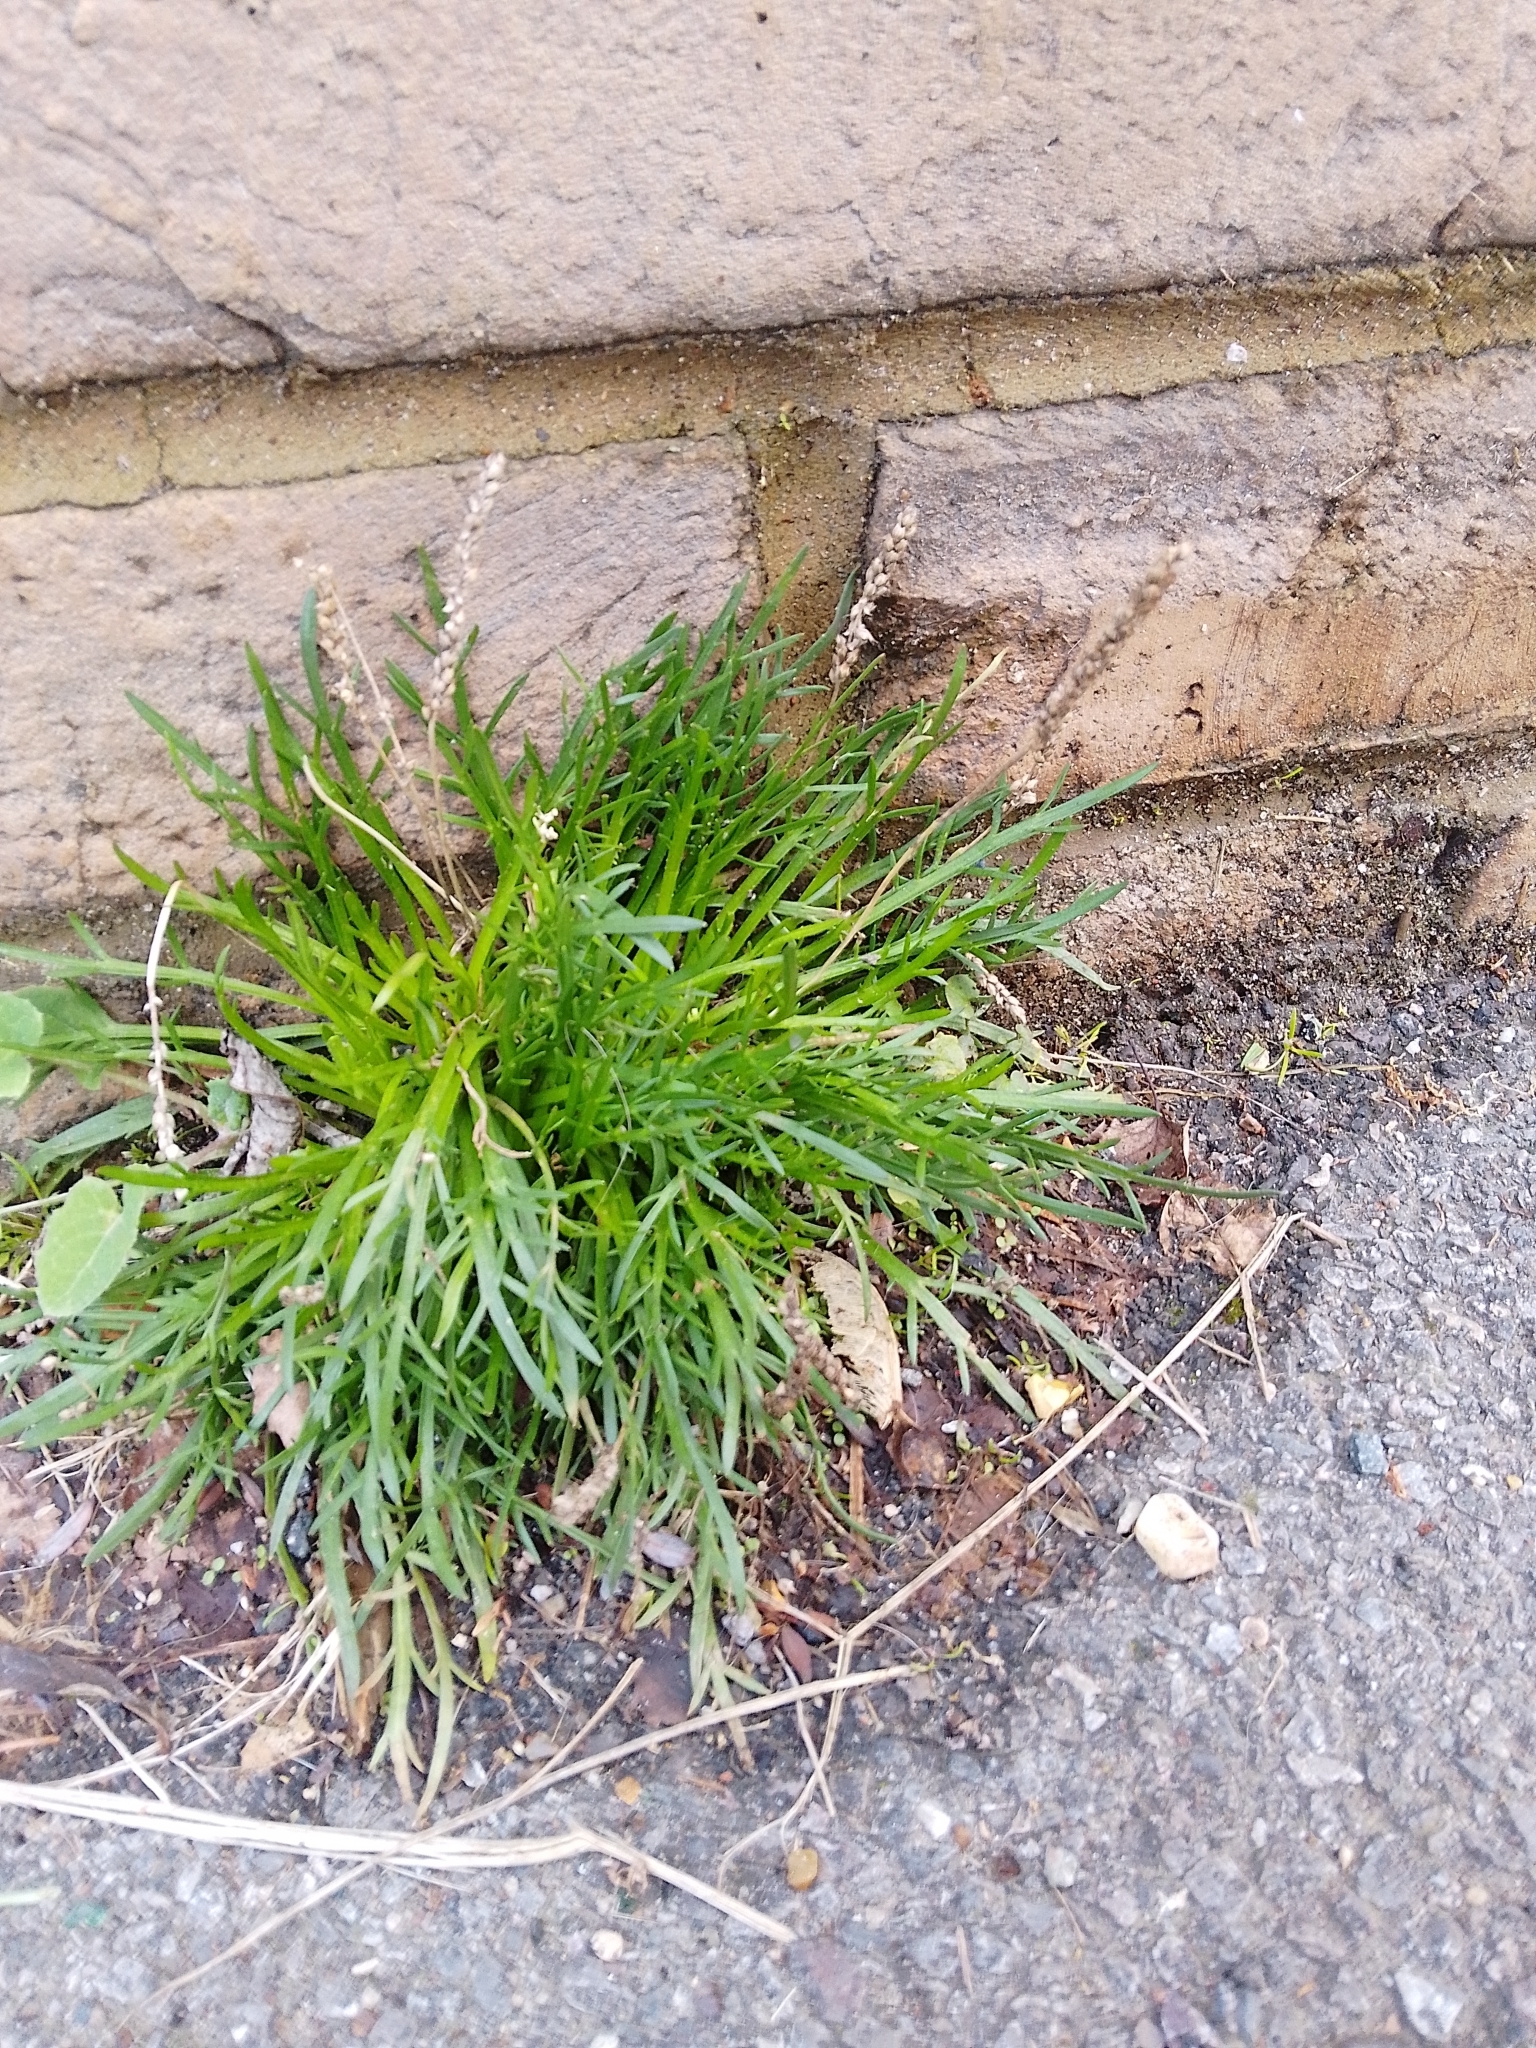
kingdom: Plantae
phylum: Tracheophyta
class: Magnoliopsida
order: Lamiales
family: Plantaginaceae
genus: Plantago
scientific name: Plantago coronopus
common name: Buck's-horn plantain
